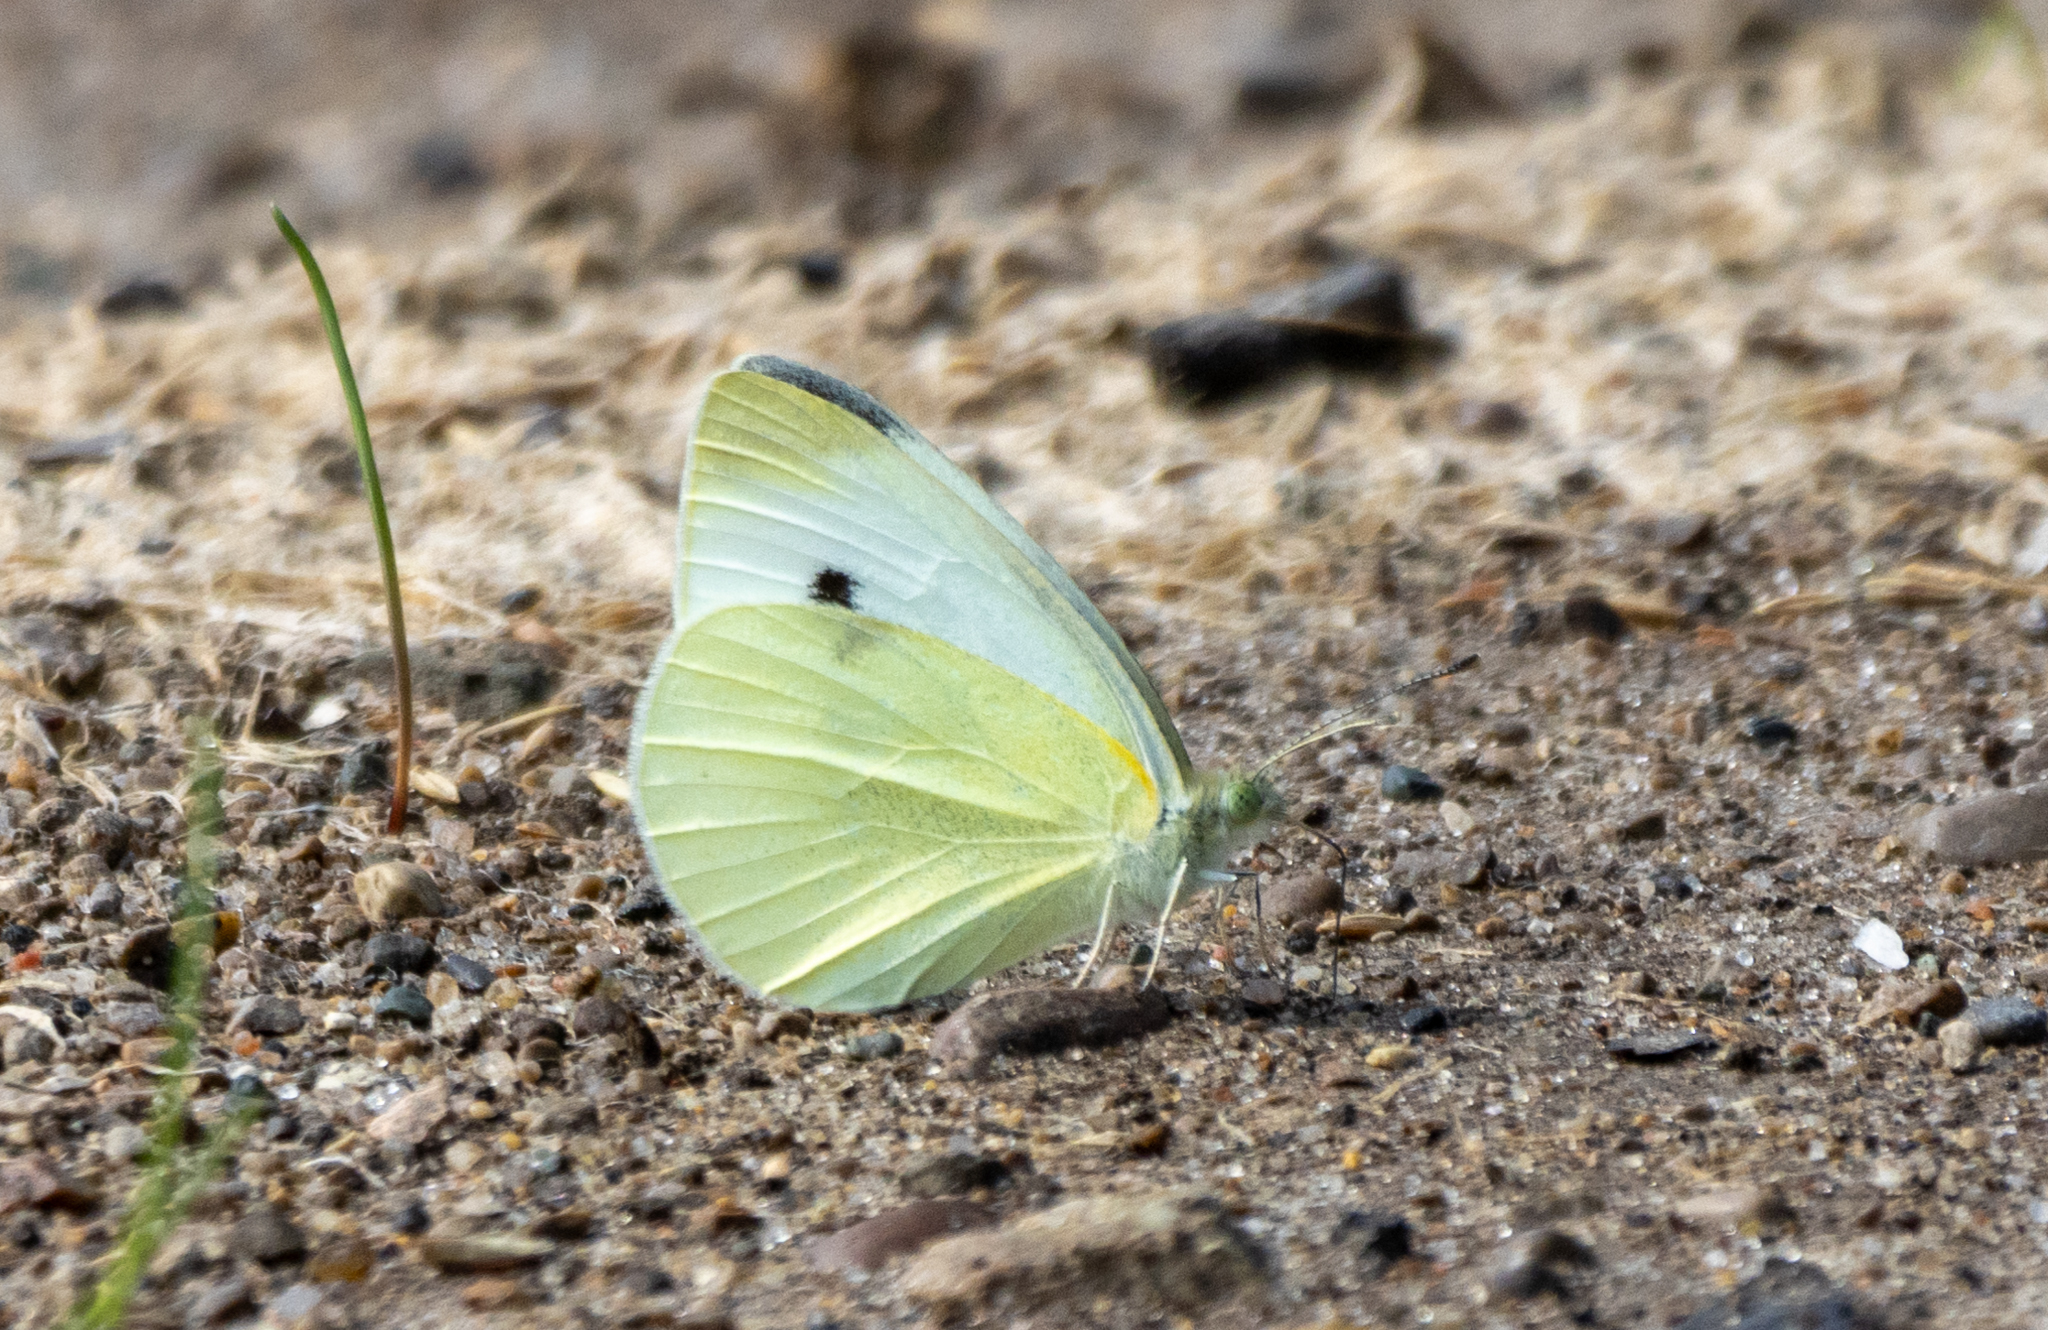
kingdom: Animalia
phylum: Arthropoda
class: Insecta
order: Lepidoptera
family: Pieridae
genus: Pieris
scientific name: Pieris rapae
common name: Small white
